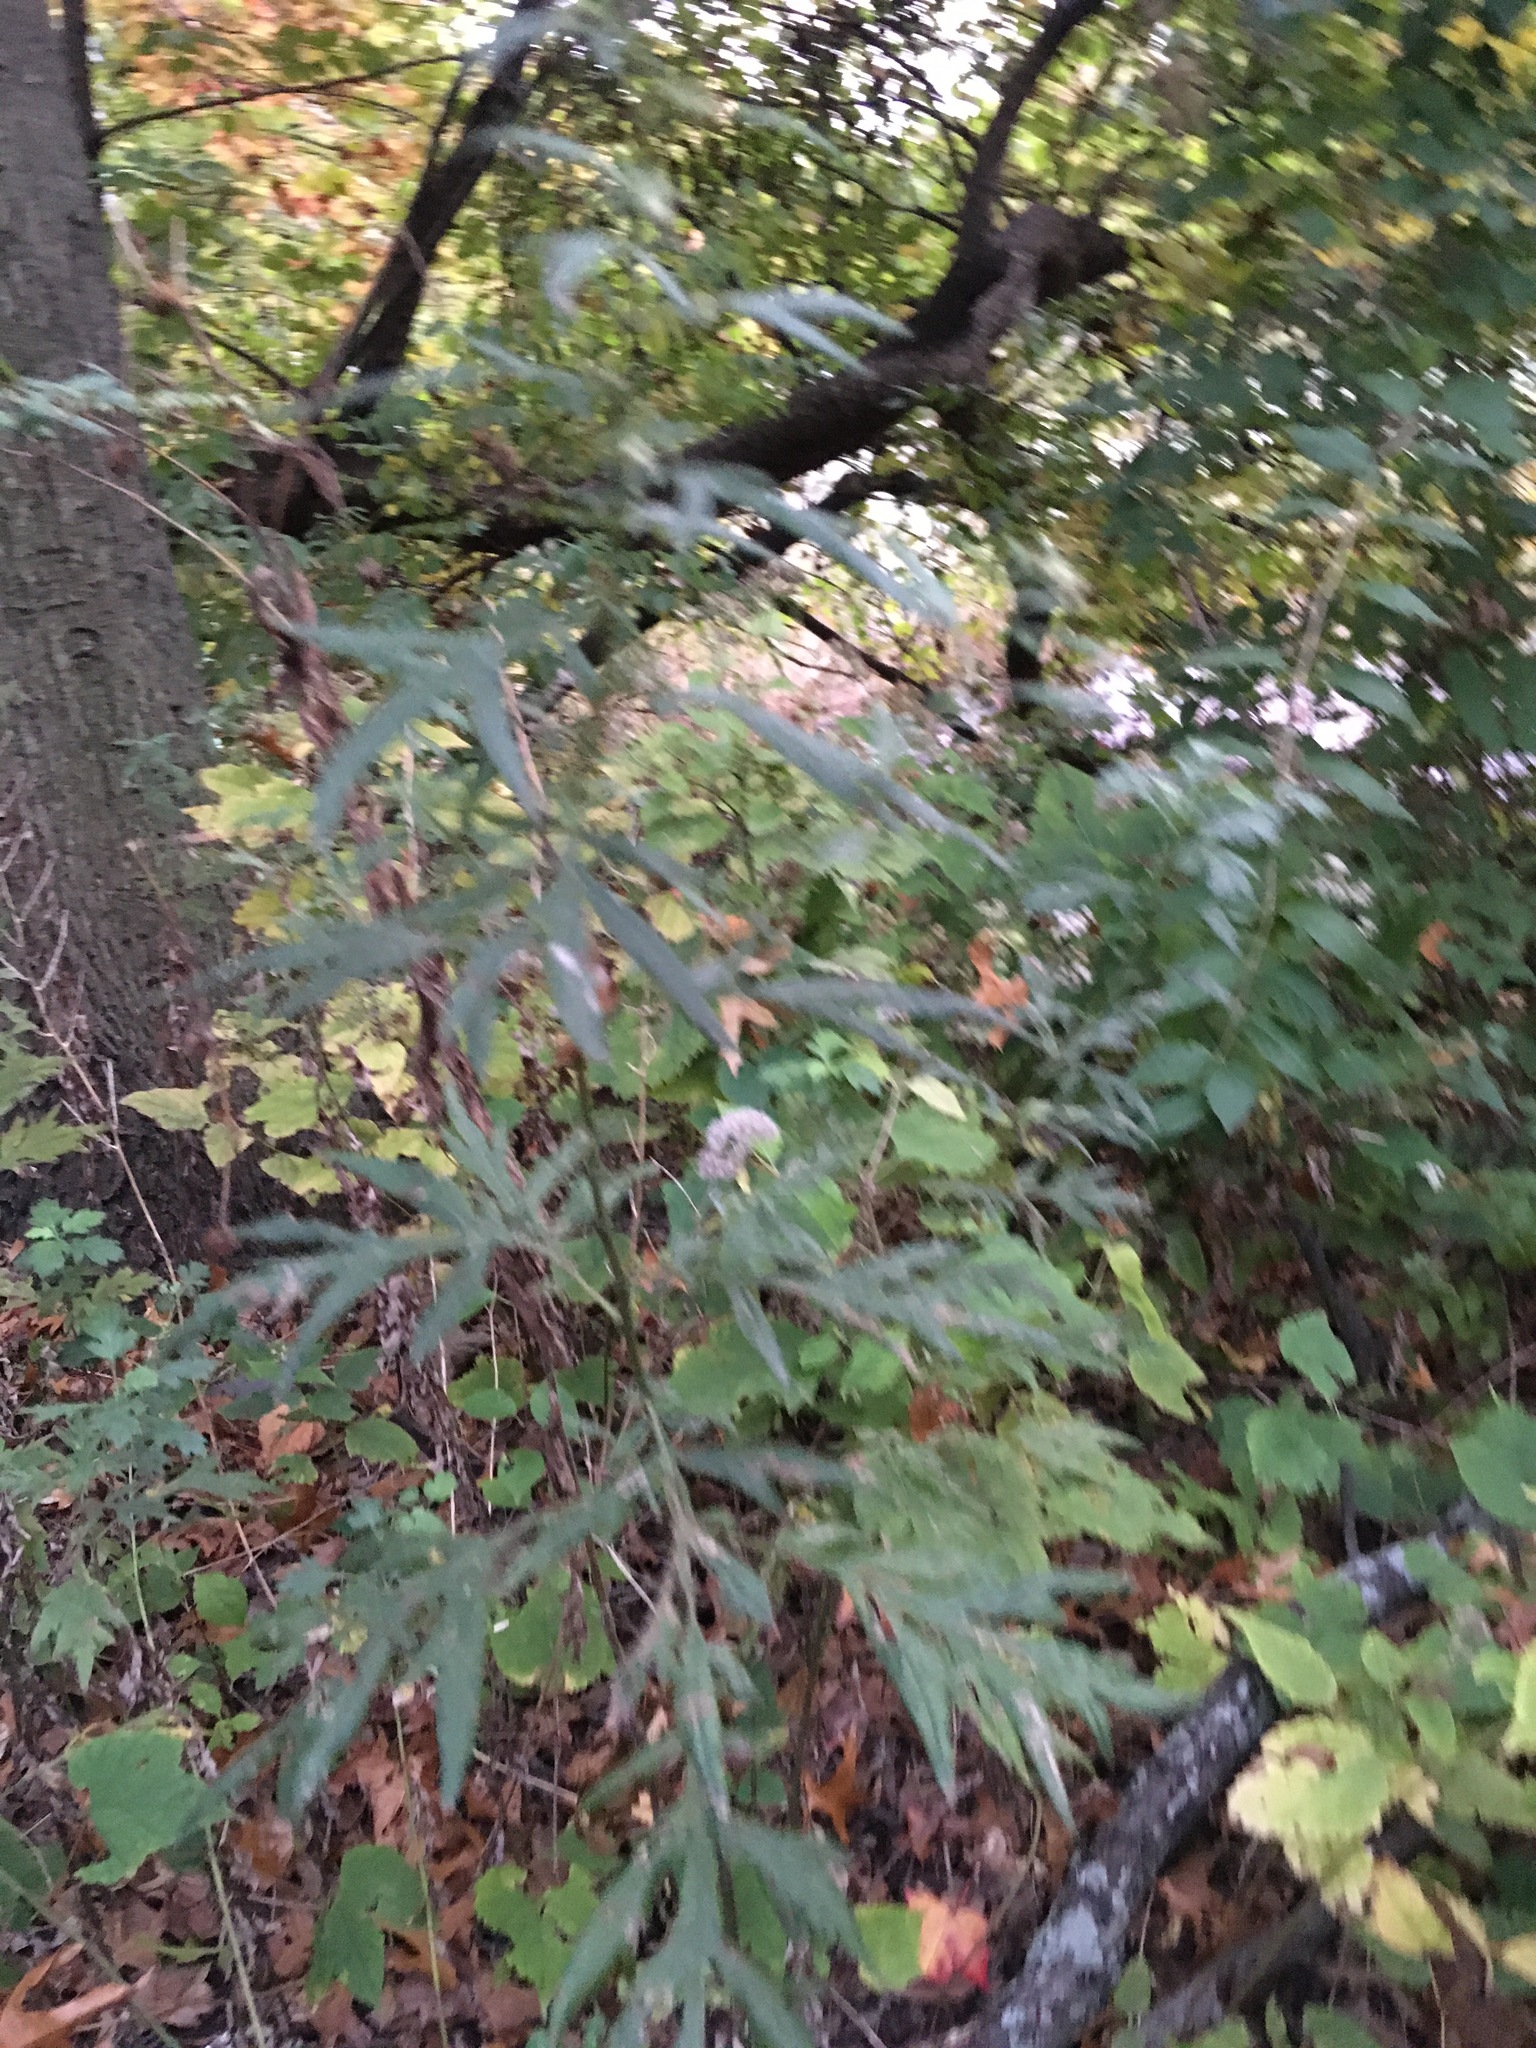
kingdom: Plantae
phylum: Tracheophyta
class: Magnoliopsida
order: Asterales
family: Asteraceae
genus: Artemisia
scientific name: Artemisia vulgaris
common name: Mugwort
